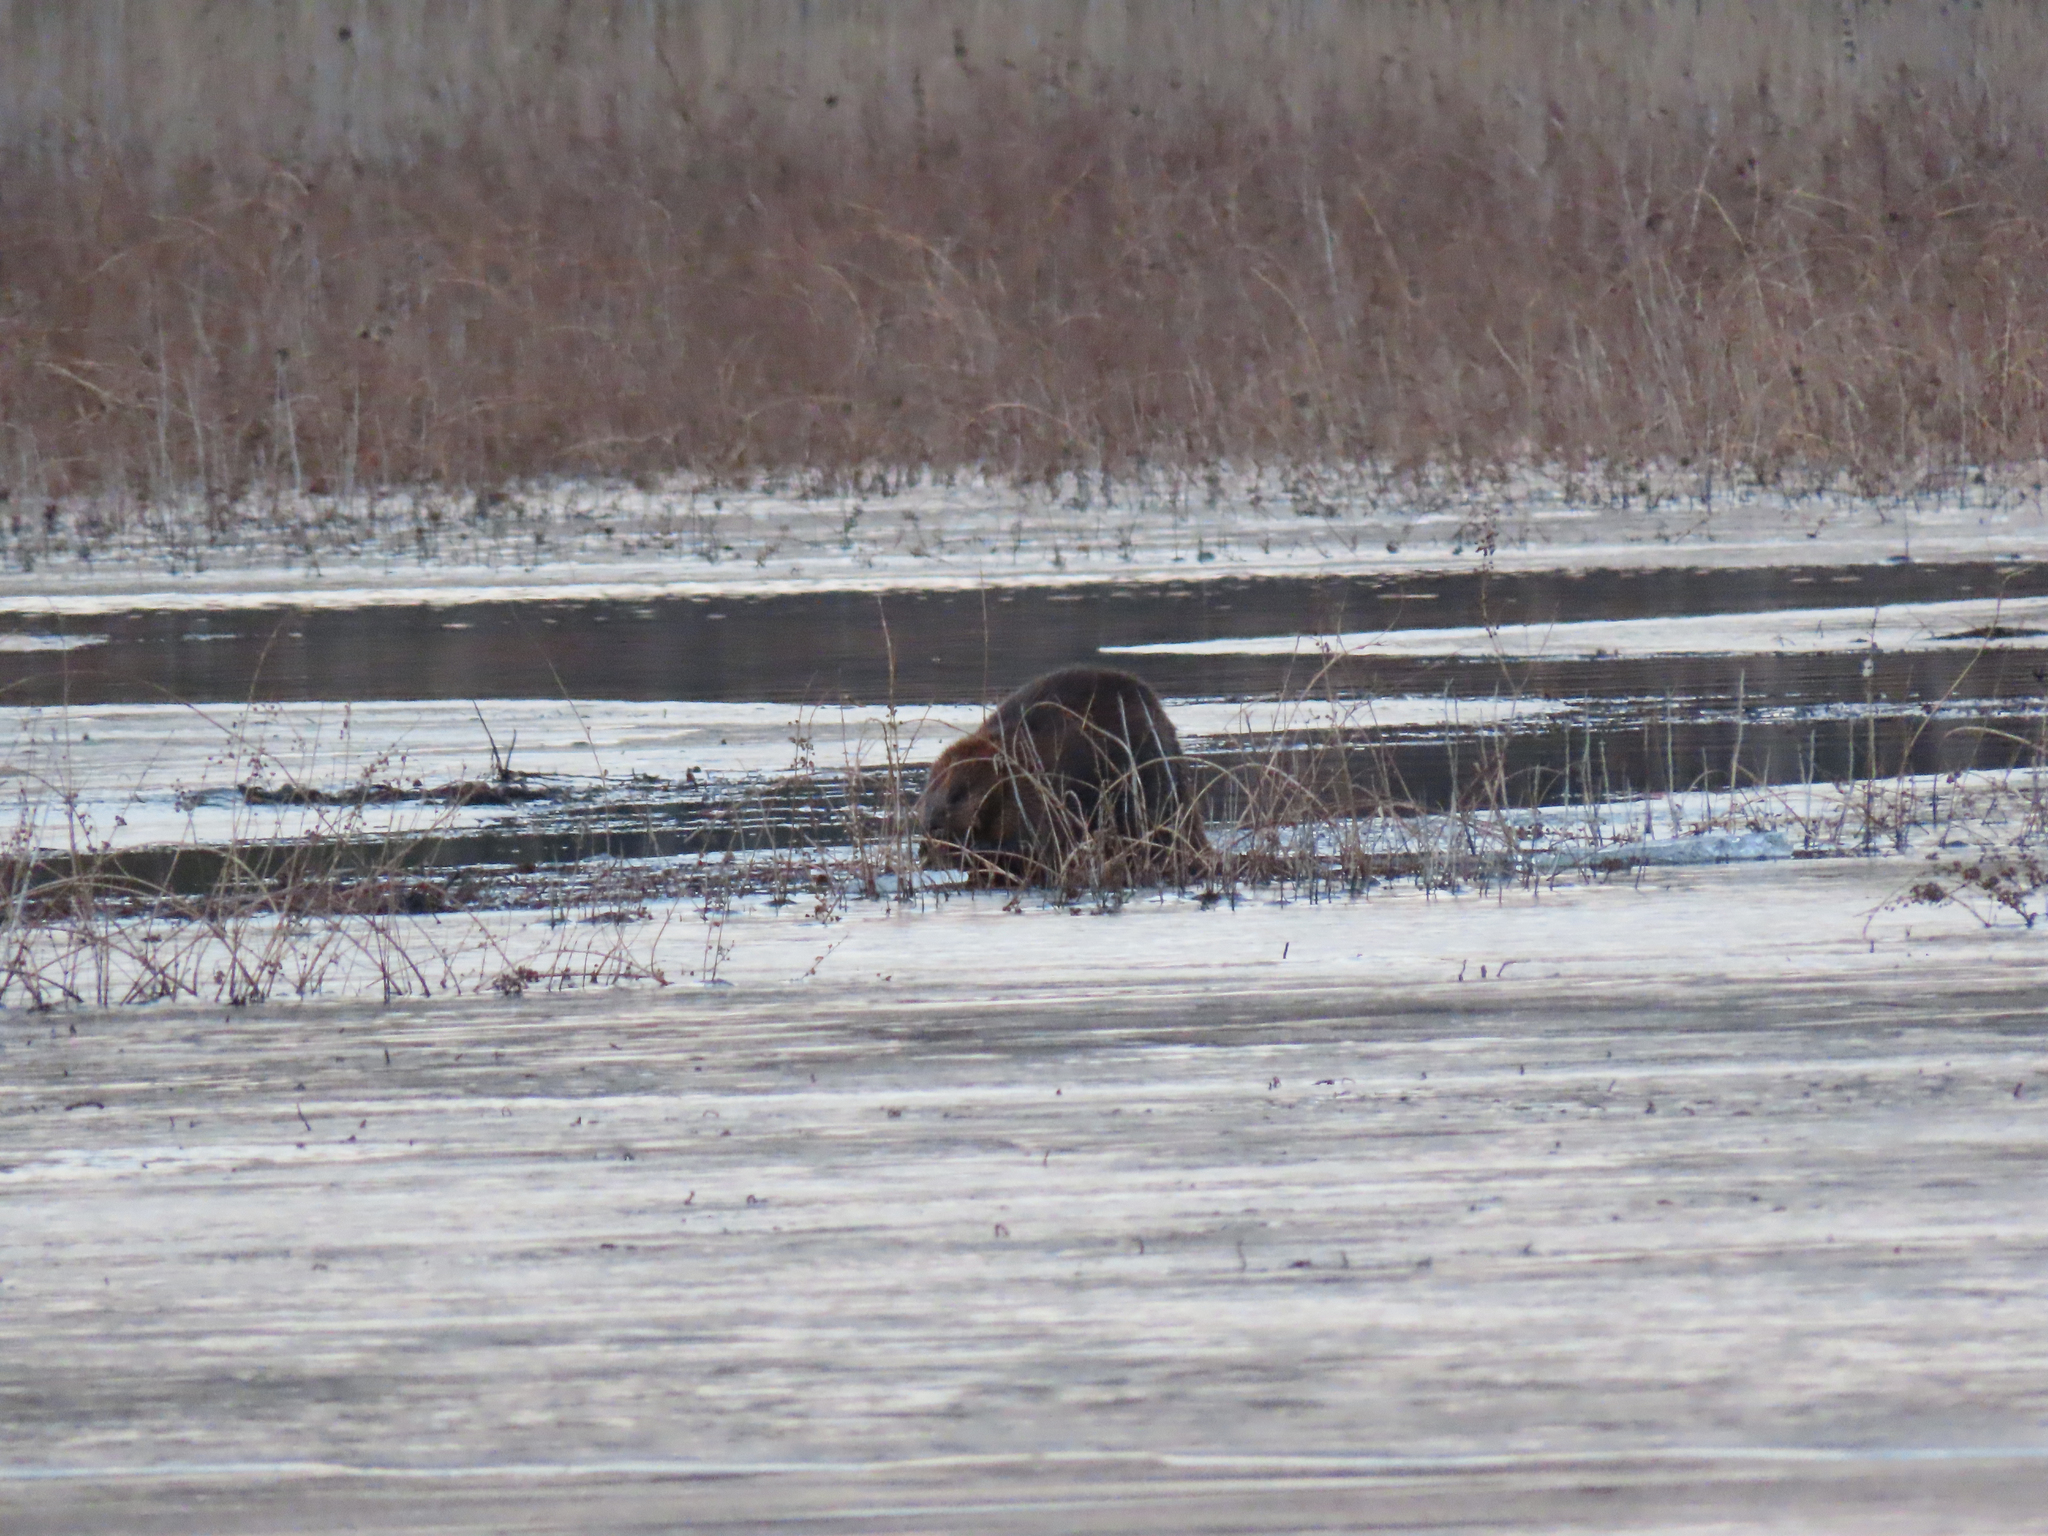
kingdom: Animalia
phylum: Chordata
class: Mammalia
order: Rodentia
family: Castoridae
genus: Castor
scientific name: Castor canadensis
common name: American beaver
